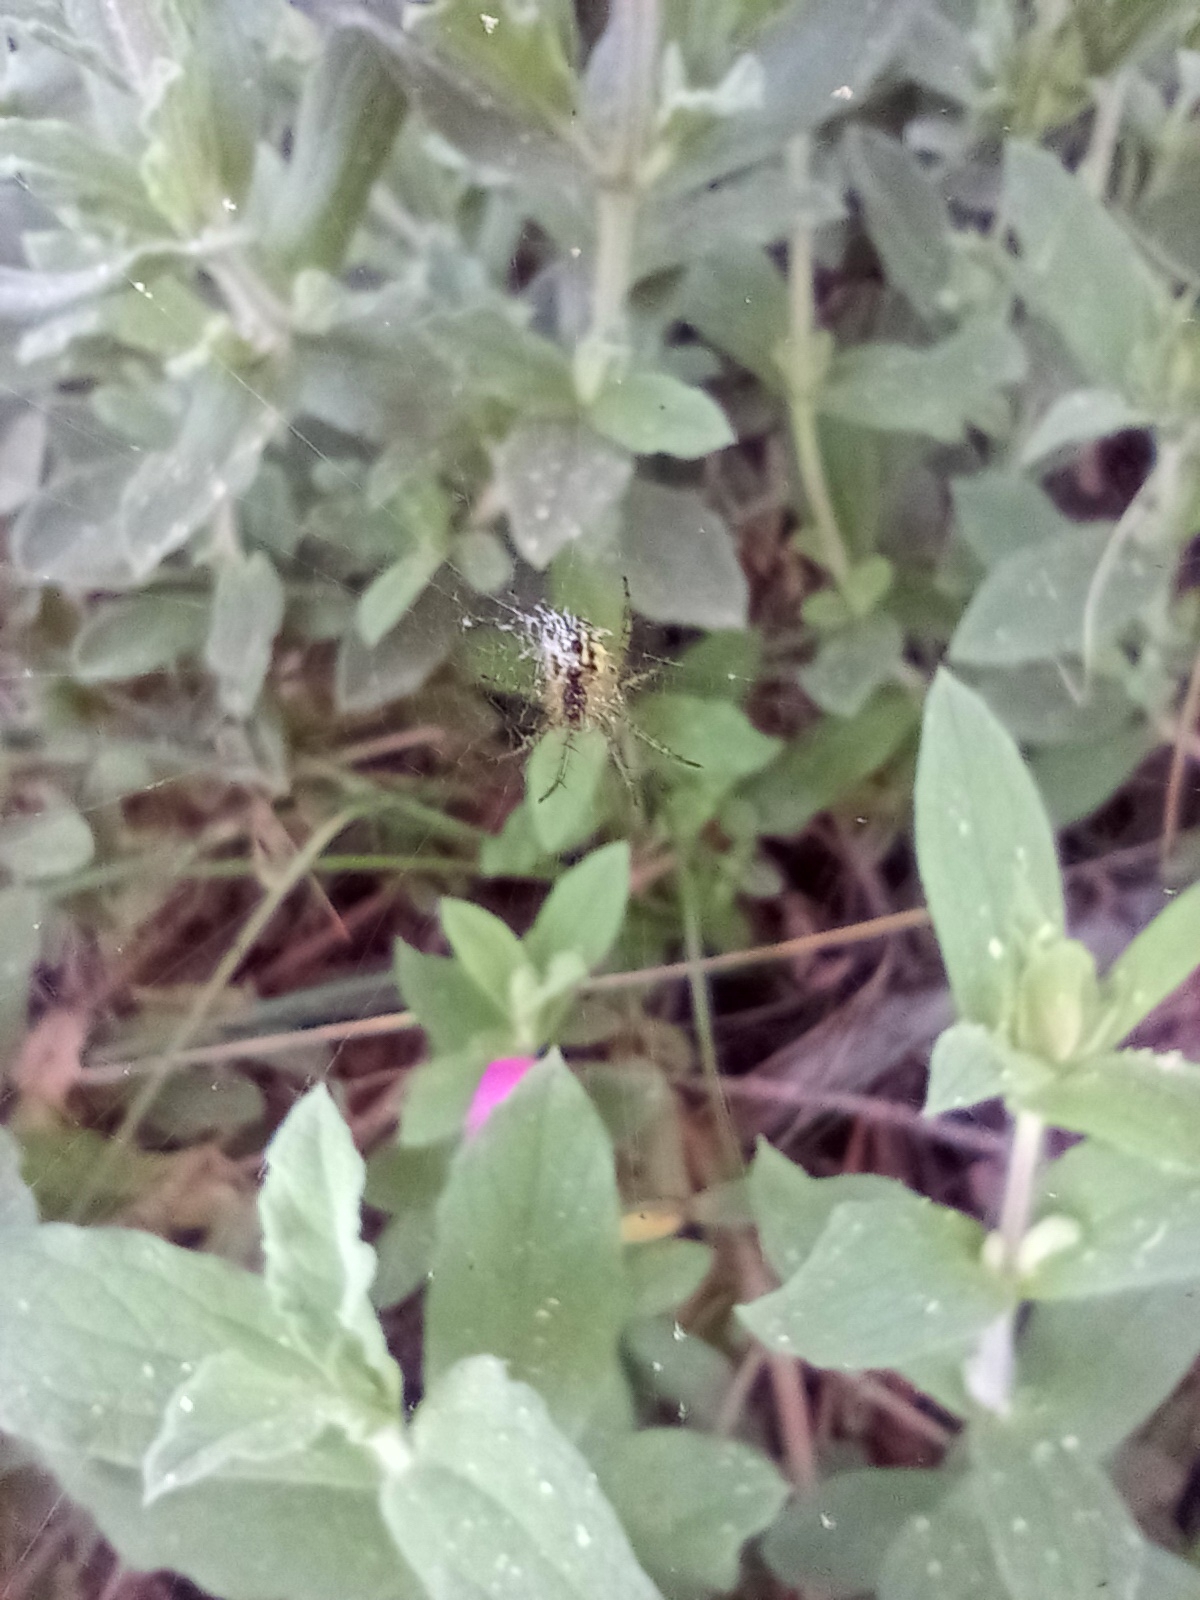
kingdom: Animalia
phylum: Arthropoda
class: Arachnida
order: Araneae
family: Araneidae
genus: Mangora
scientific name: Mangora acalypha
